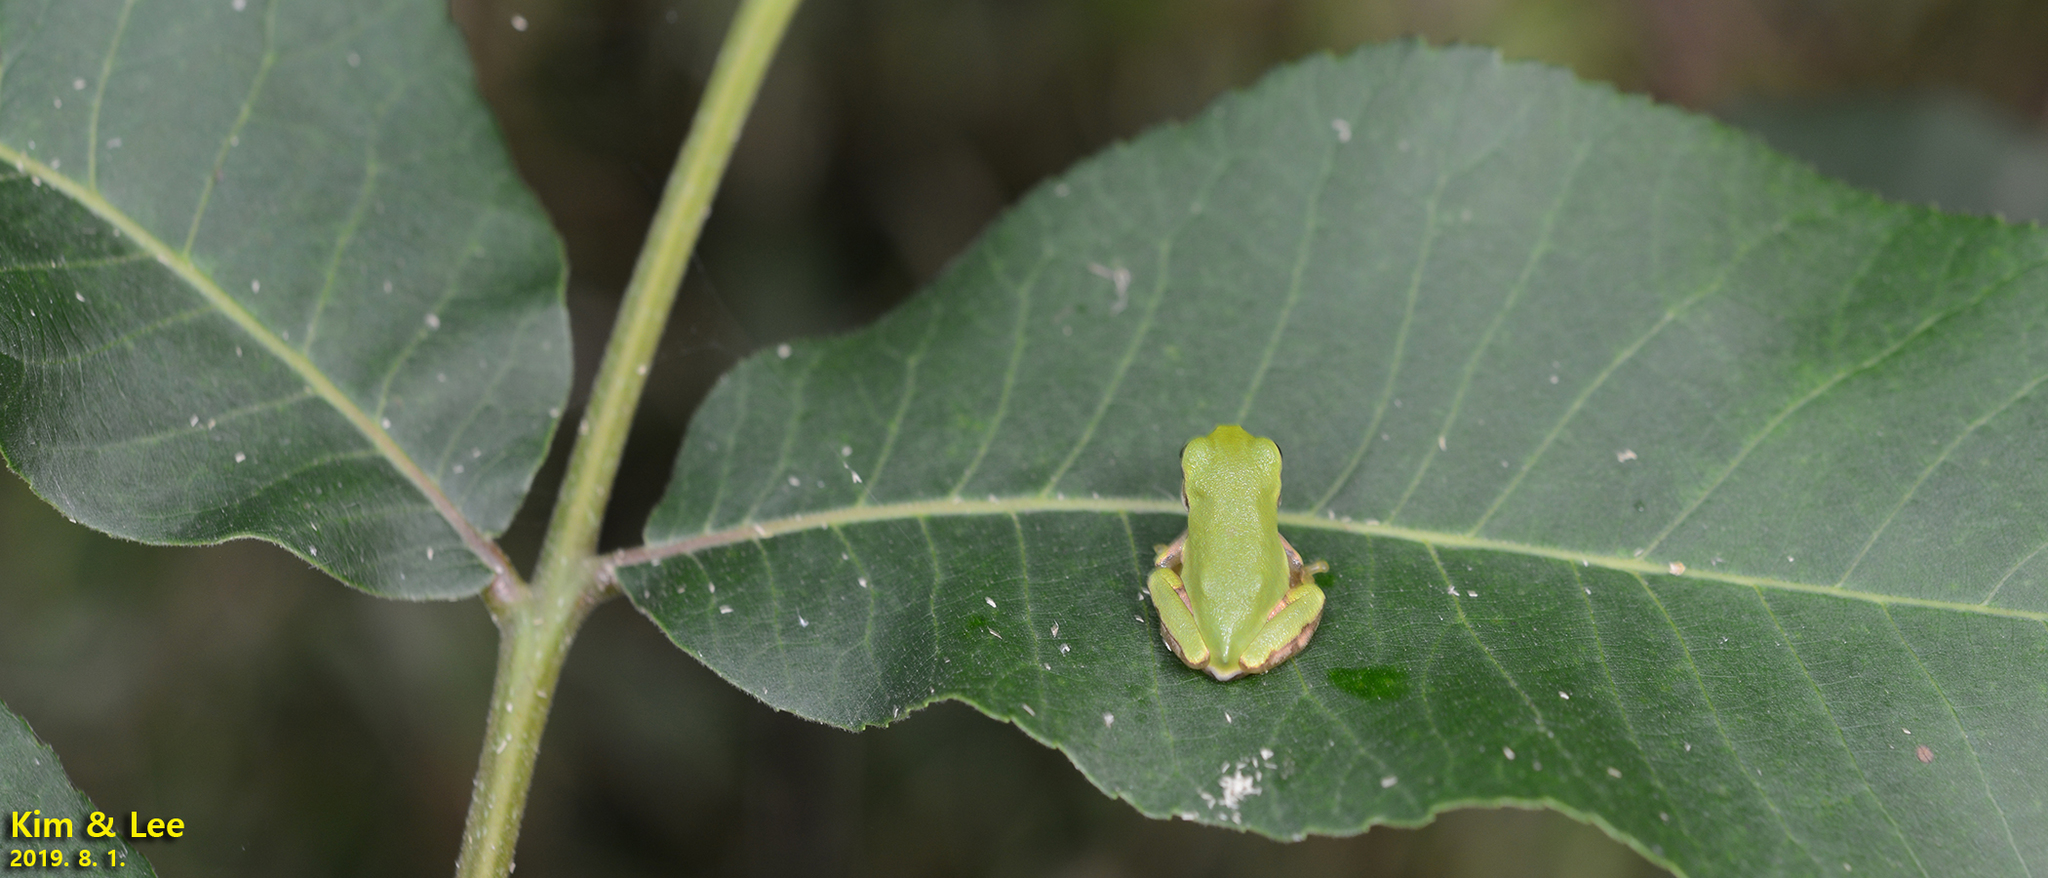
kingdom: Animalia
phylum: Chordata
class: Amphibia
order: Anura
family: Hylidae
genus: Dryophytes
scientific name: Dryophytes japonicus
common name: Japanese treefrog
